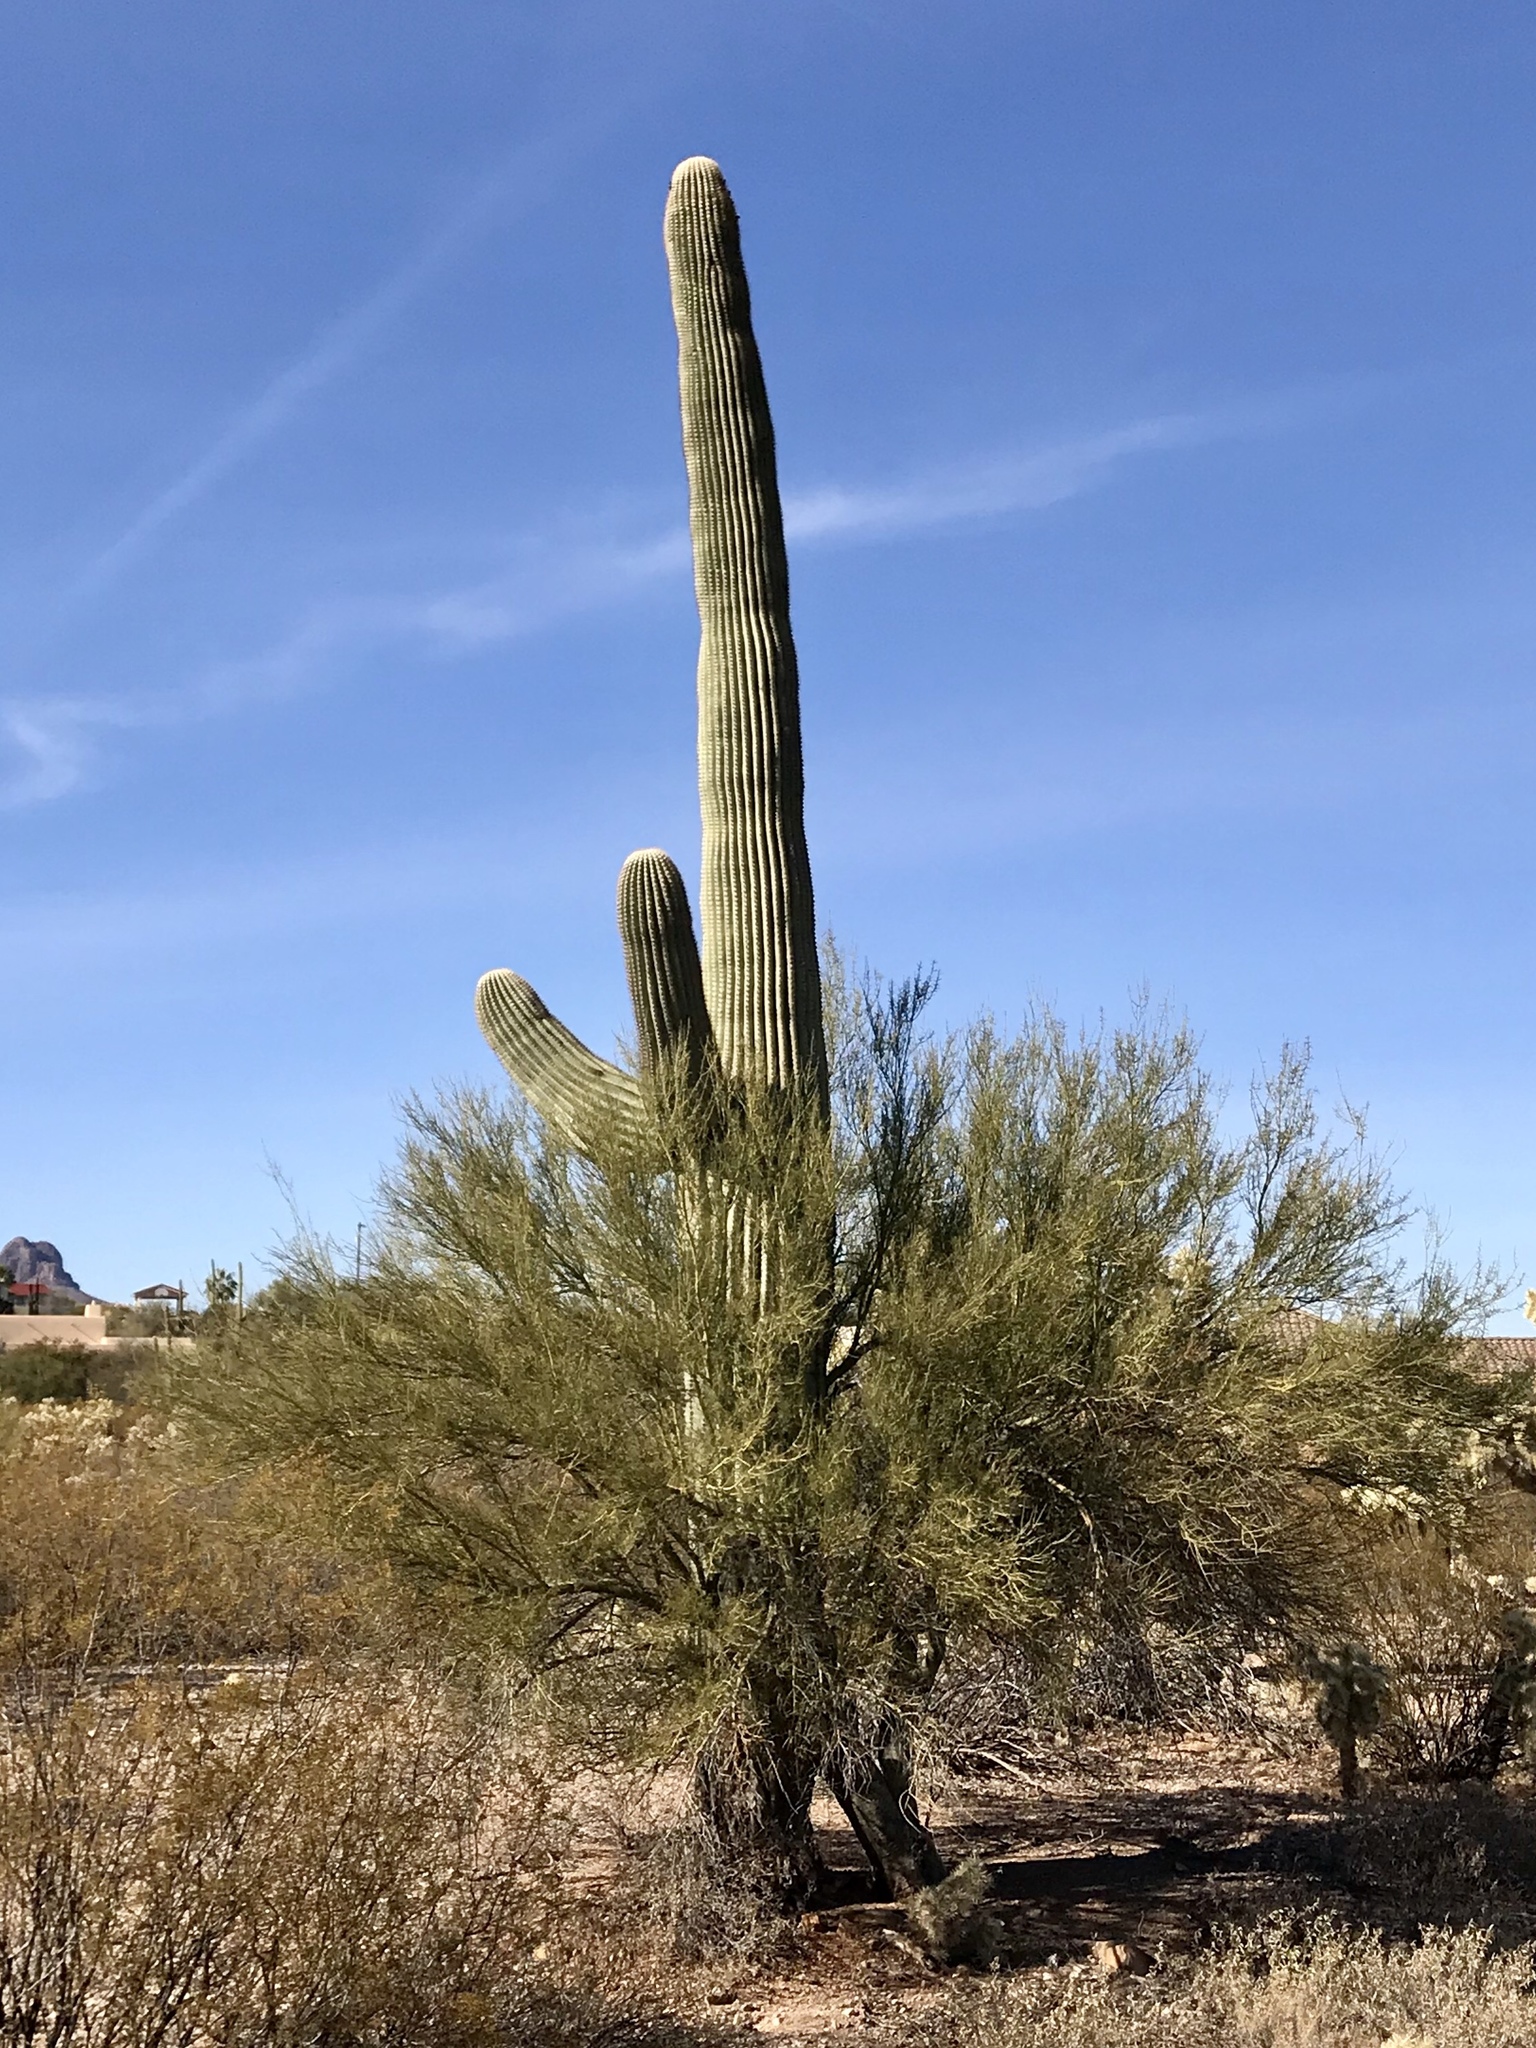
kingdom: Plantae
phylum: Tracheophyta
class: Magnoliopsida
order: Caryophyllales
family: Cactaceae
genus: Carnegiea
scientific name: Carnegiea gigantea
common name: Saguaro
